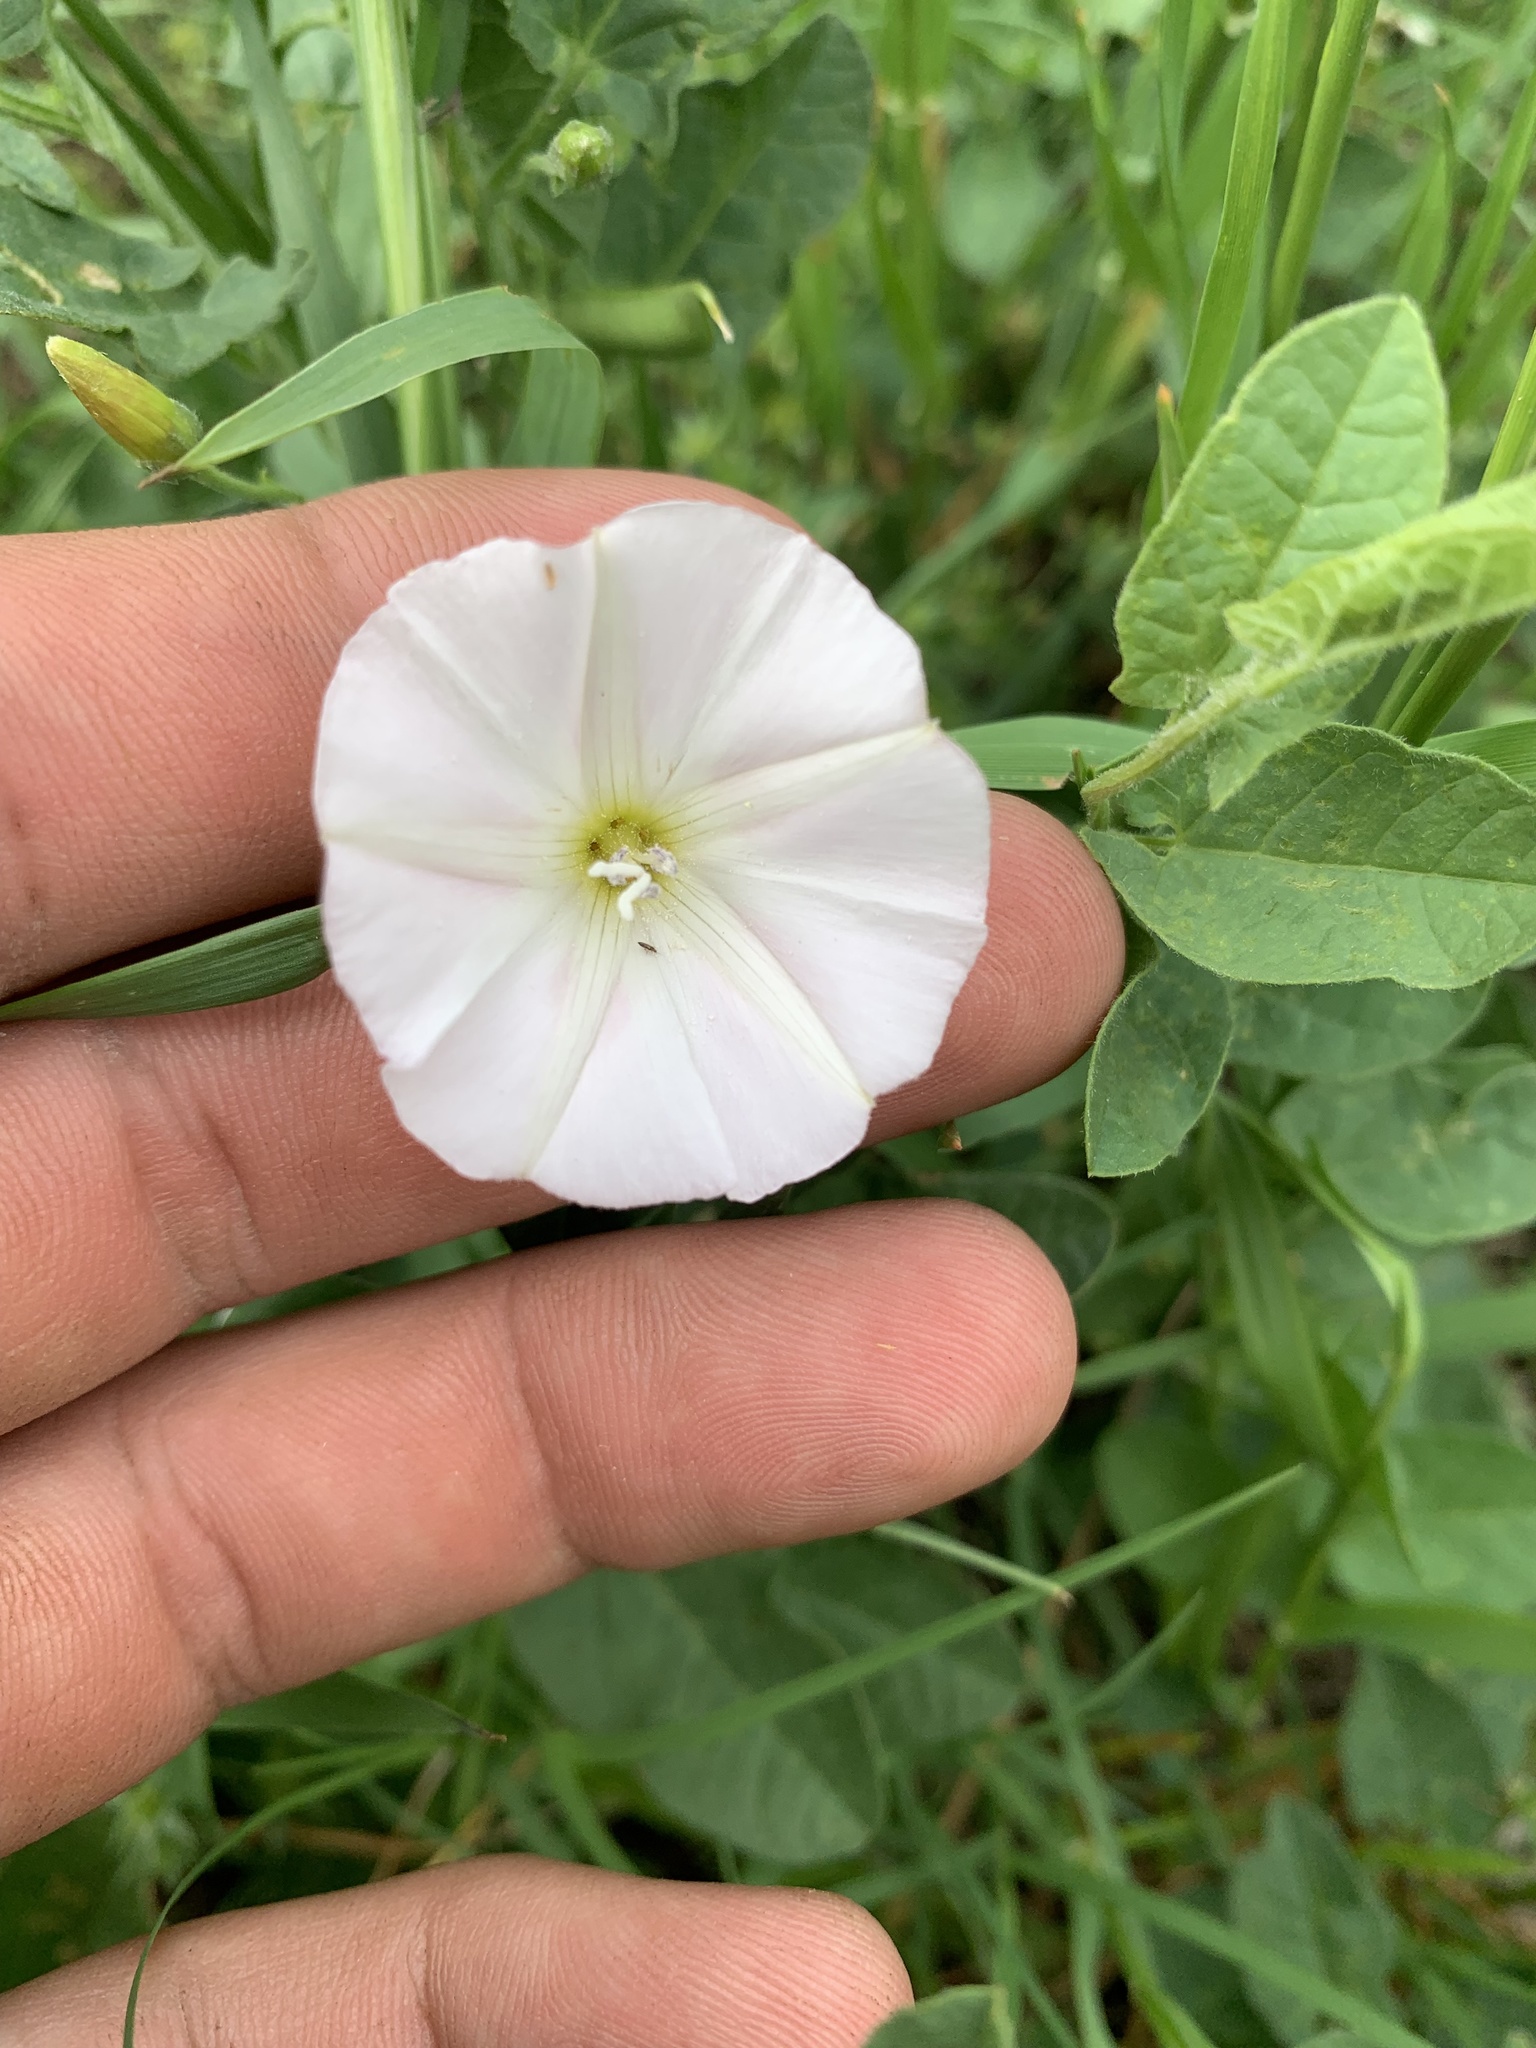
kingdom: Plantae
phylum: Tracheophyta
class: Magnoliopsida
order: Solanales
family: Convolvulaceae
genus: Convolvulus
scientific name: Convolvulus arvensis
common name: Field bindweed
